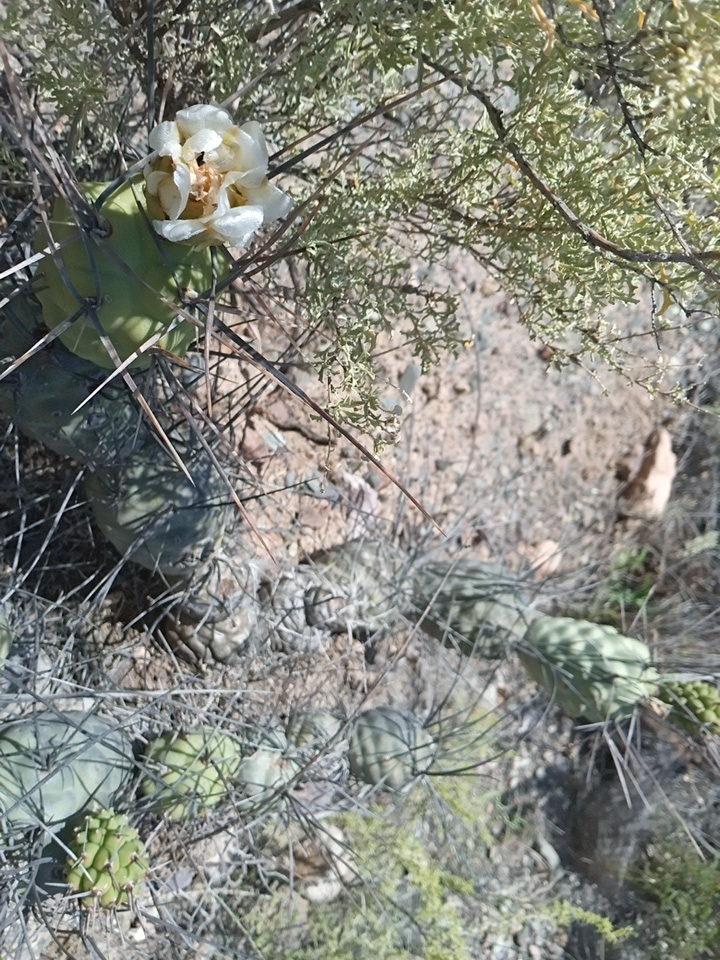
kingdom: Plantae
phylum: Tracheophyta
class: Magnoliopsida
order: Caryophyllales
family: Cactaceae
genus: Tephrocactus
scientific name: Tephrocactus aoracanthus
